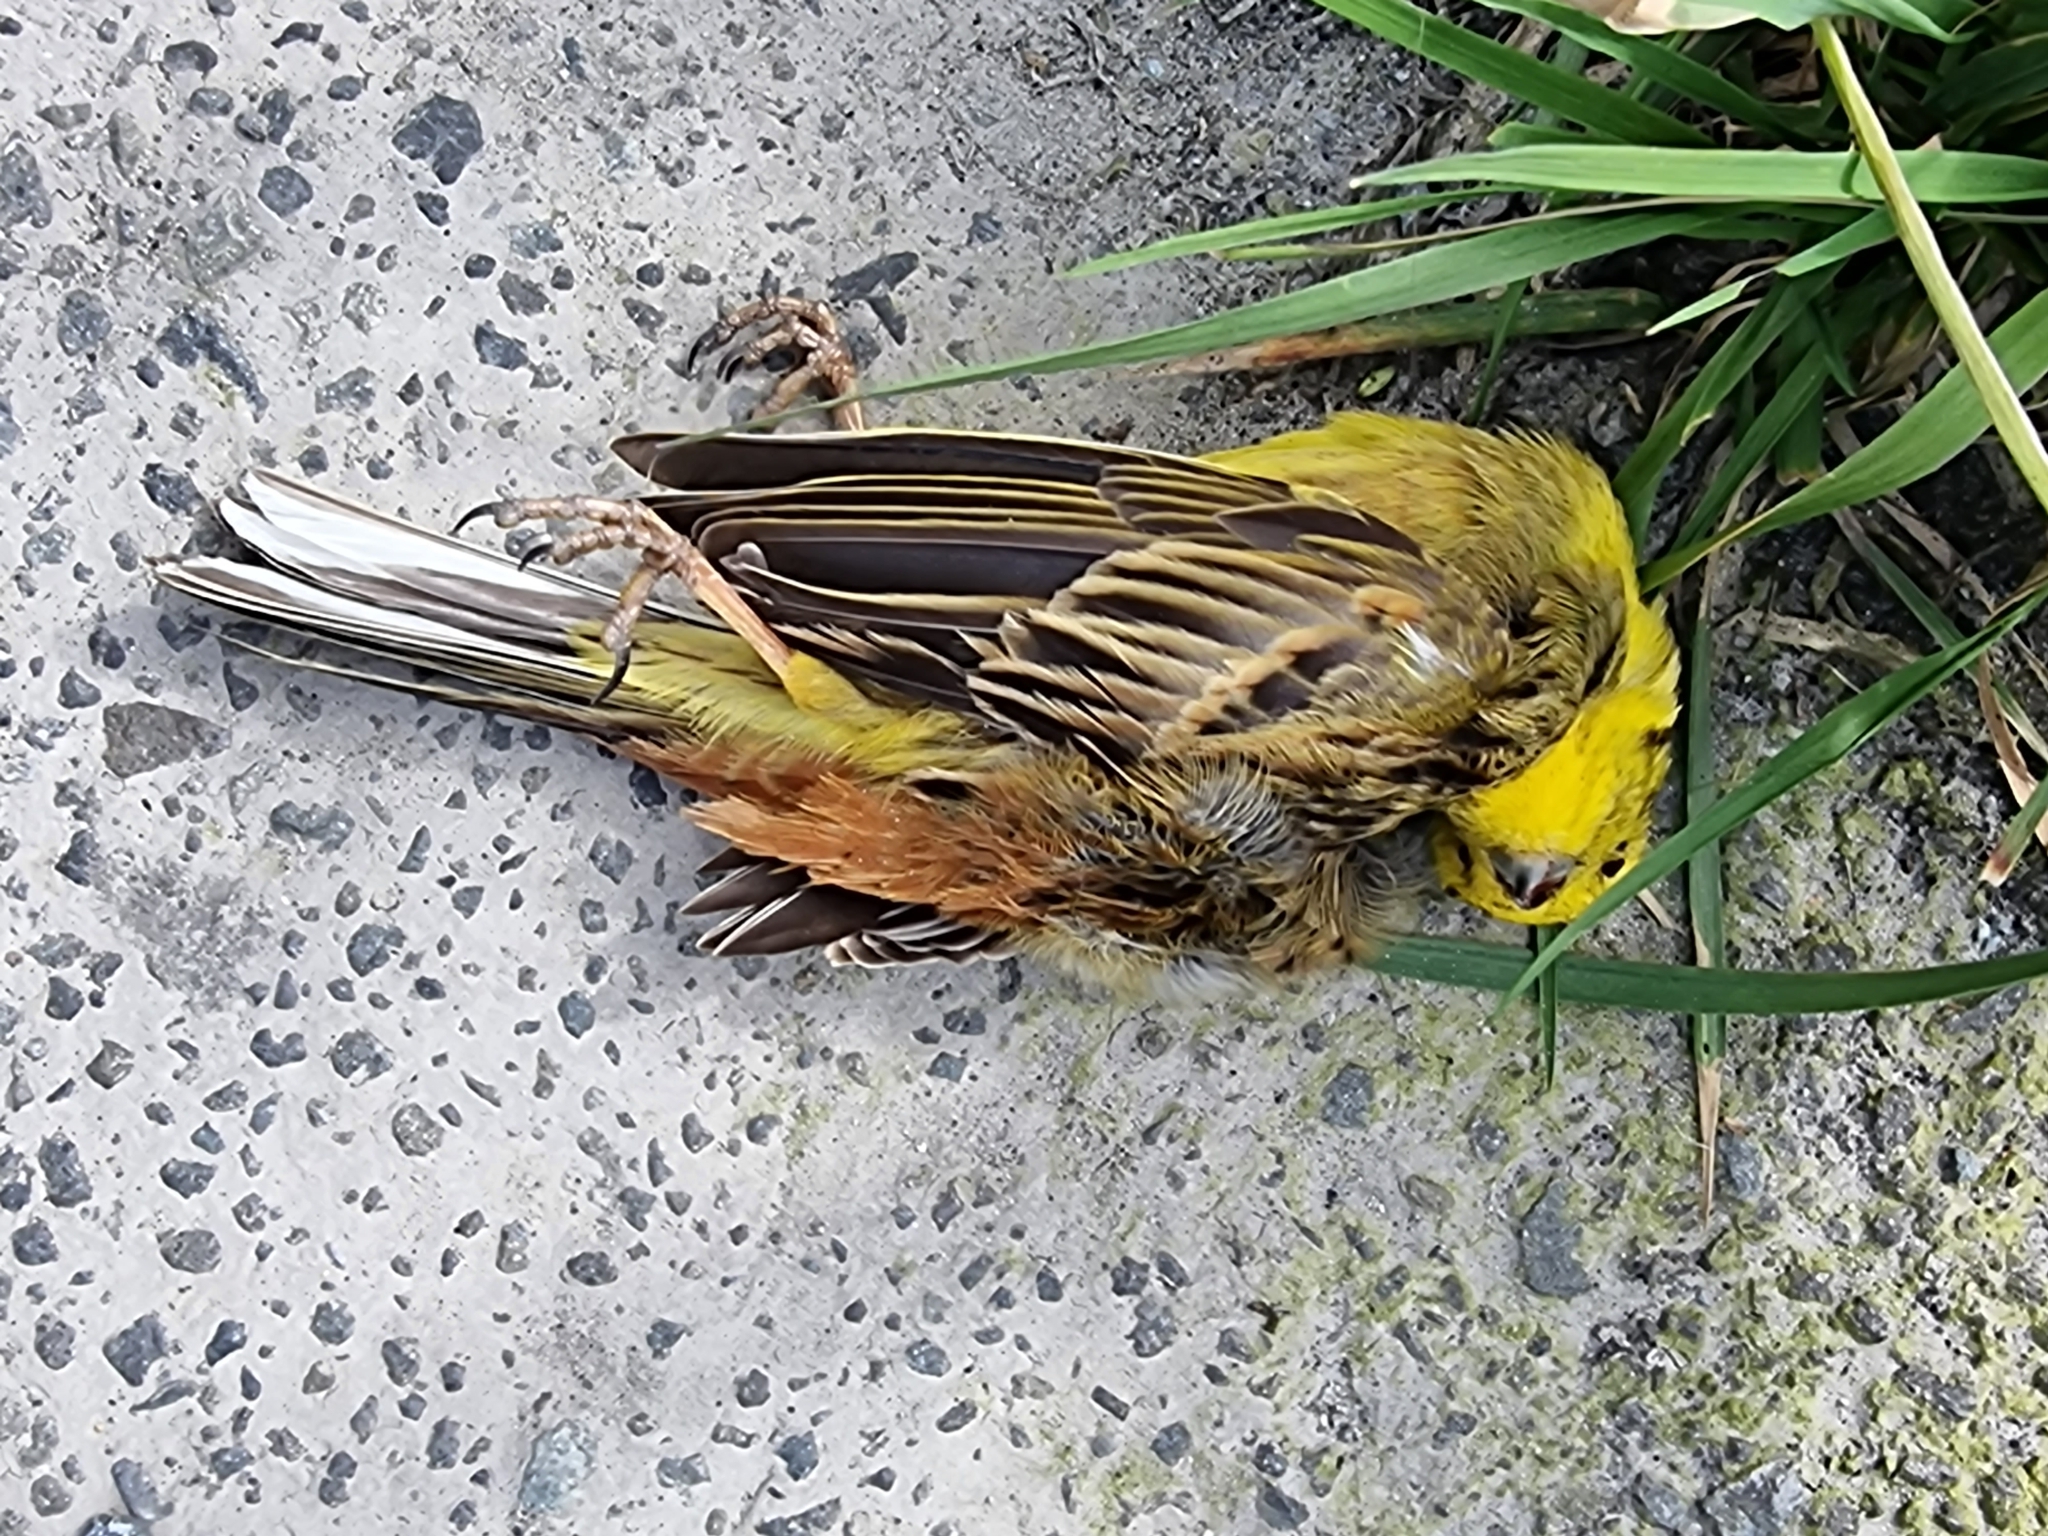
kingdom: Animalia
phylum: Chordata
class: Aves
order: Passeriformes
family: Emberizidae
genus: Emberiza
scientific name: Emberiza citrinella
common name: Yellowhammer
